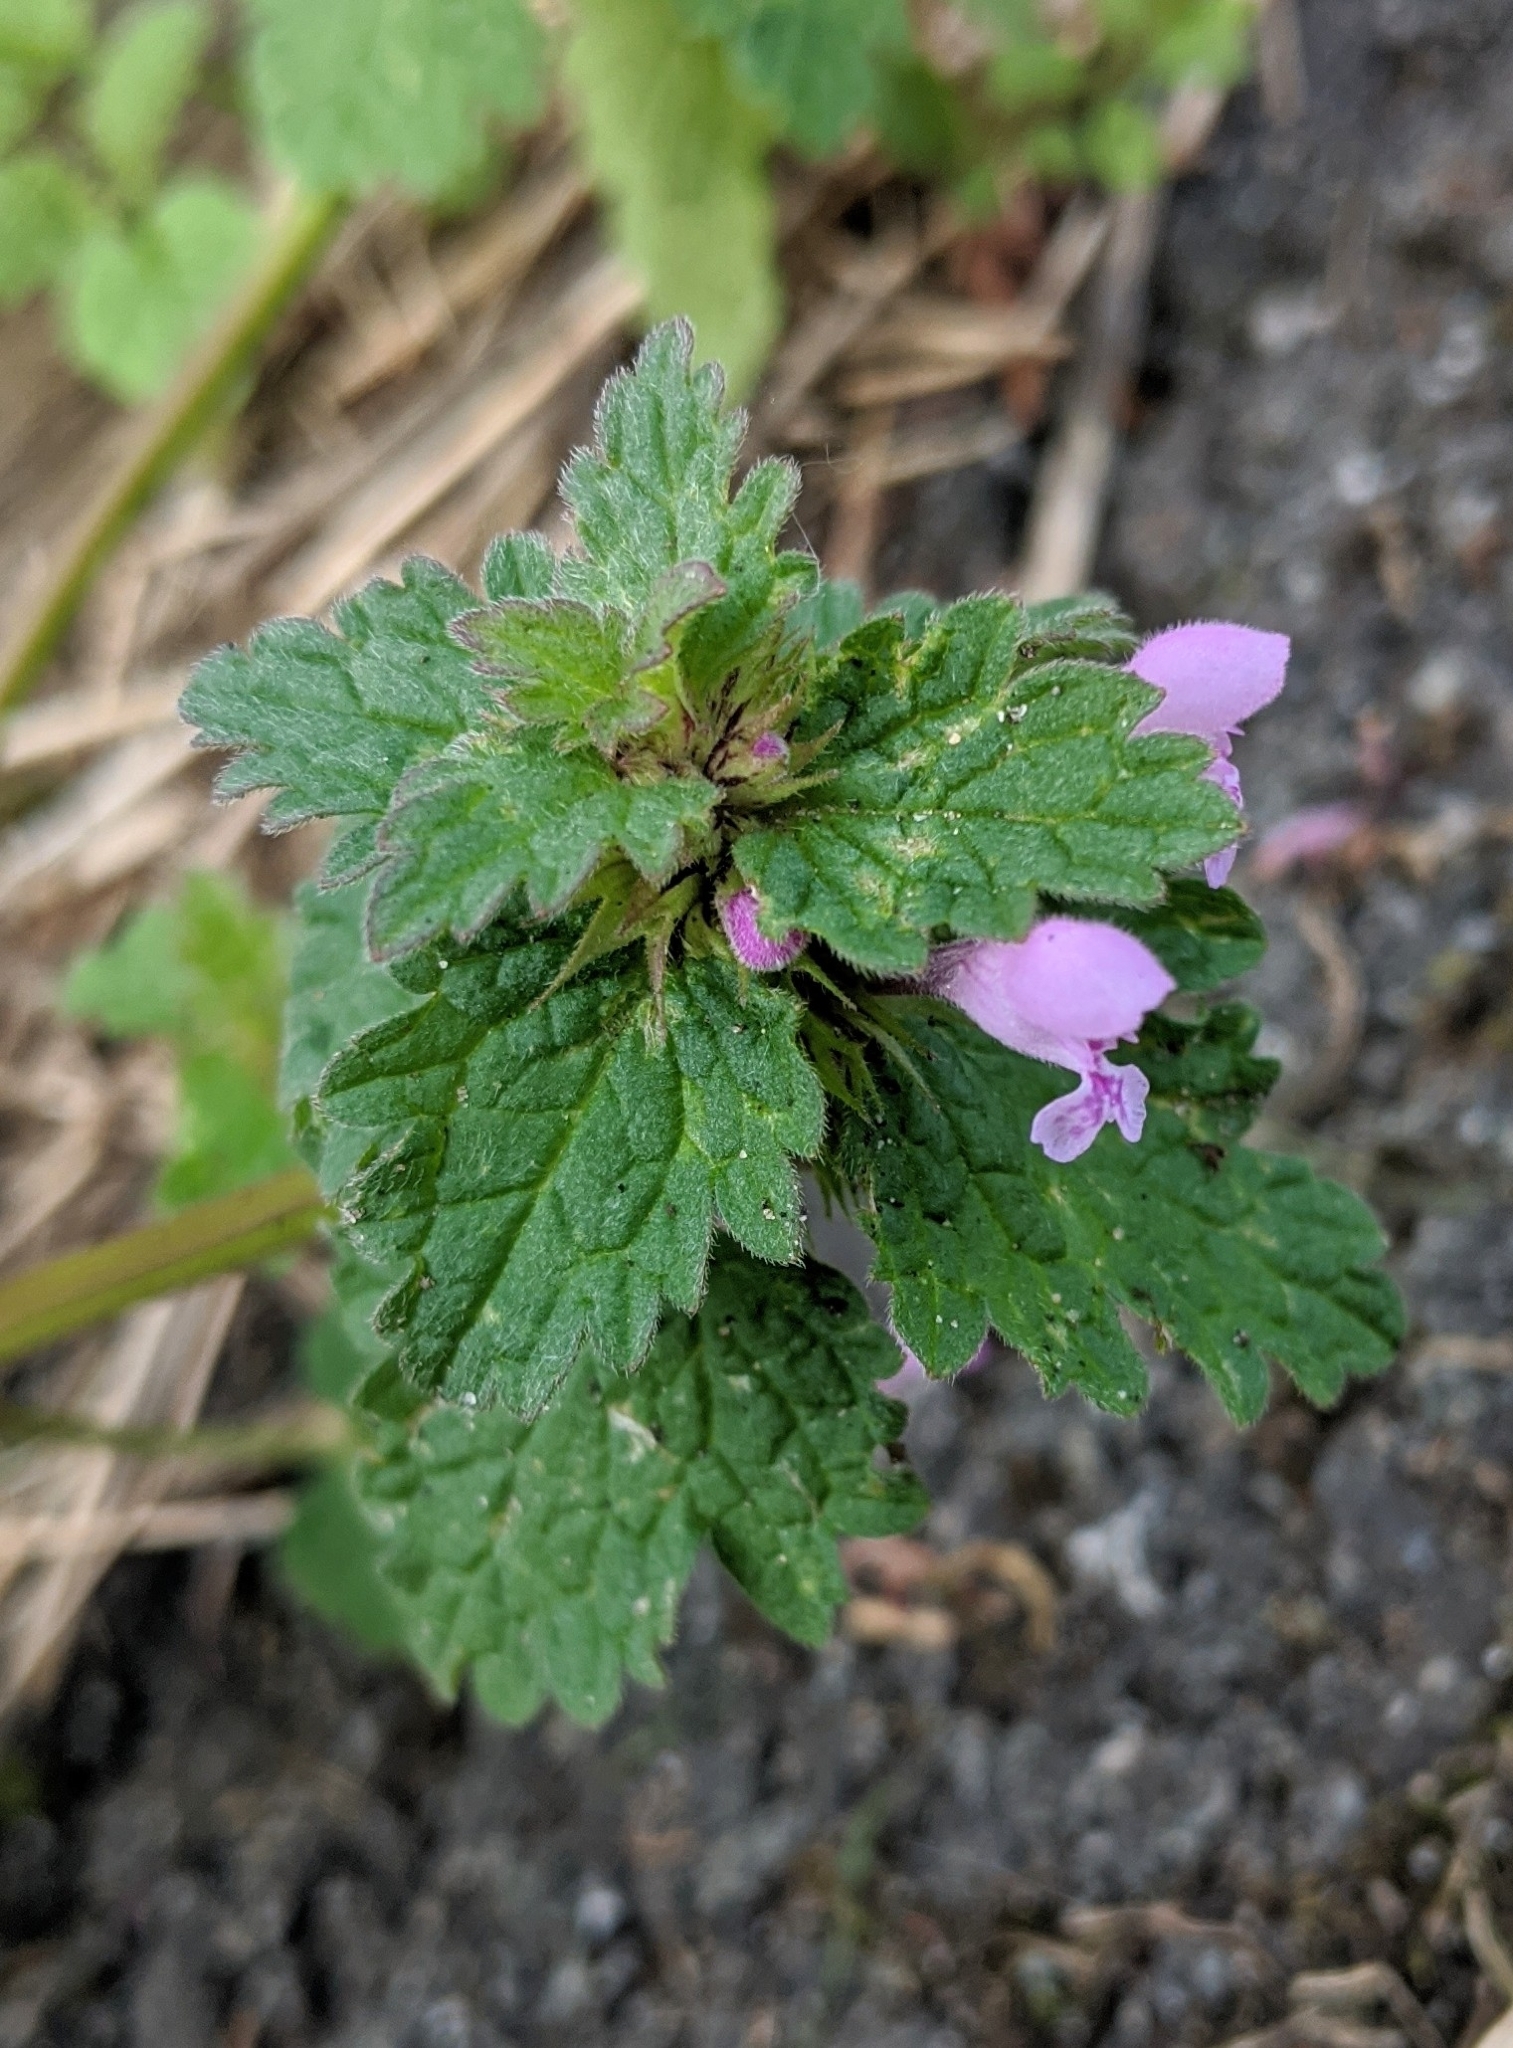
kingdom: Plantae
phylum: Tracheophyta
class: Magnoliopsida
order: Lamiales
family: Lamiaceae
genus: Lamium
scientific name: Lamium hybridum
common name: Cut-leaved dead-nettle
